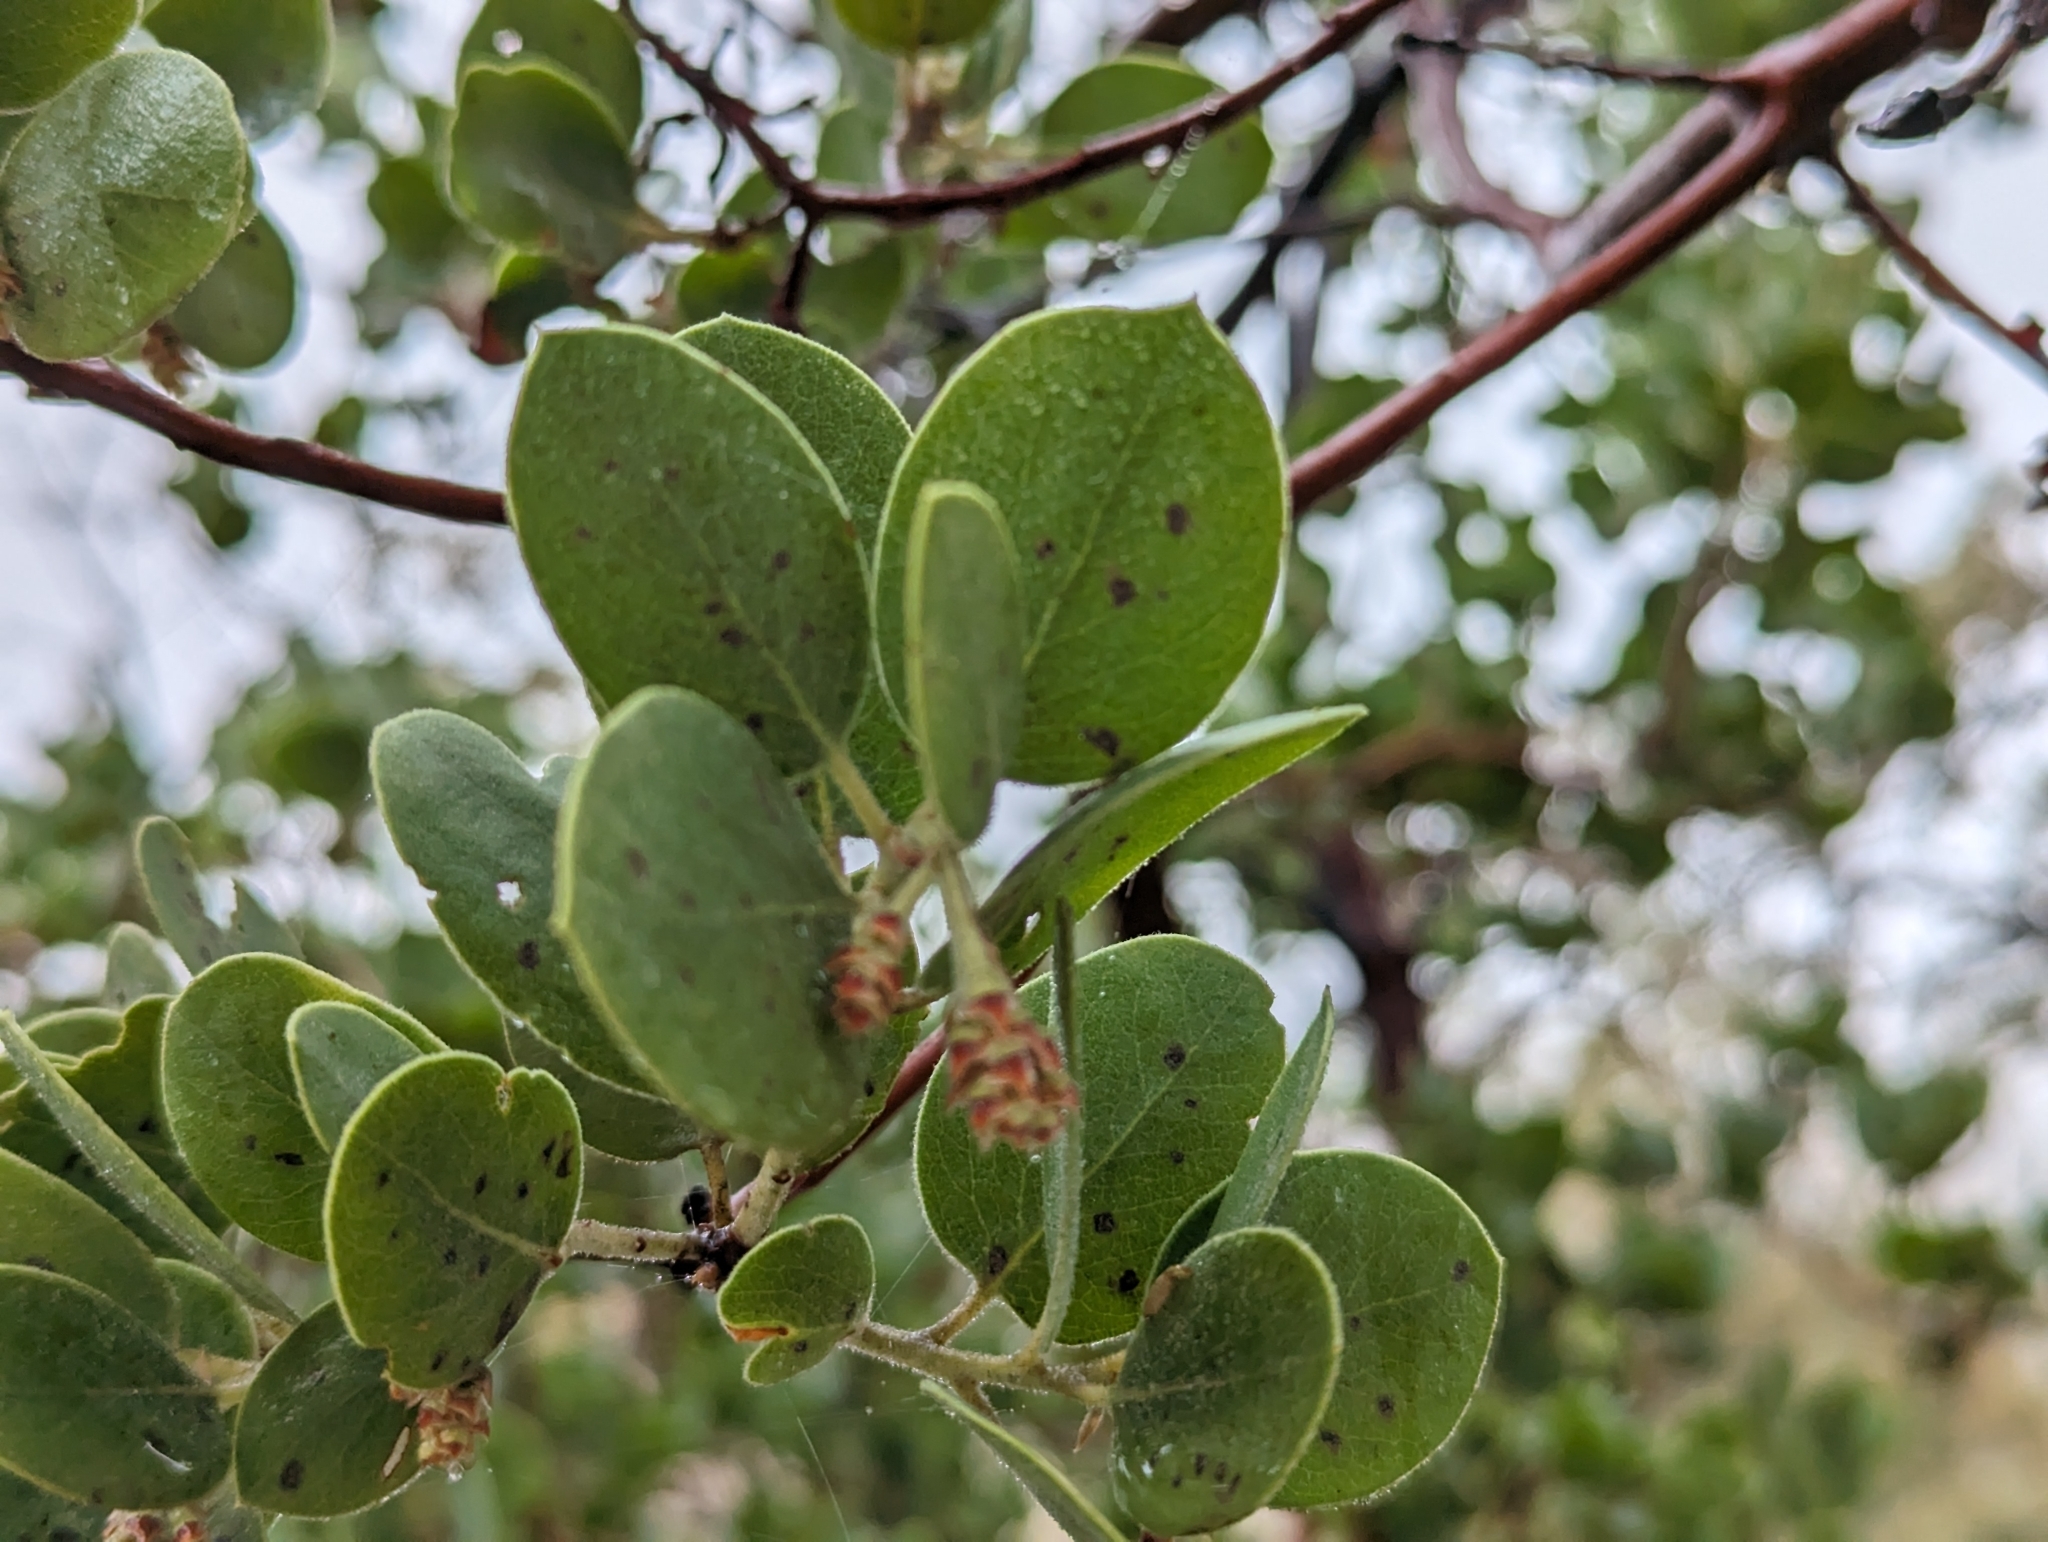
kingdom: Plantae
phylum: Tracheophyta
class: Magnoliopsida
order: Ericales
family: Ericaceae
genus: Arctostaphylos
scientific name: Arctostaphylos manzanita
